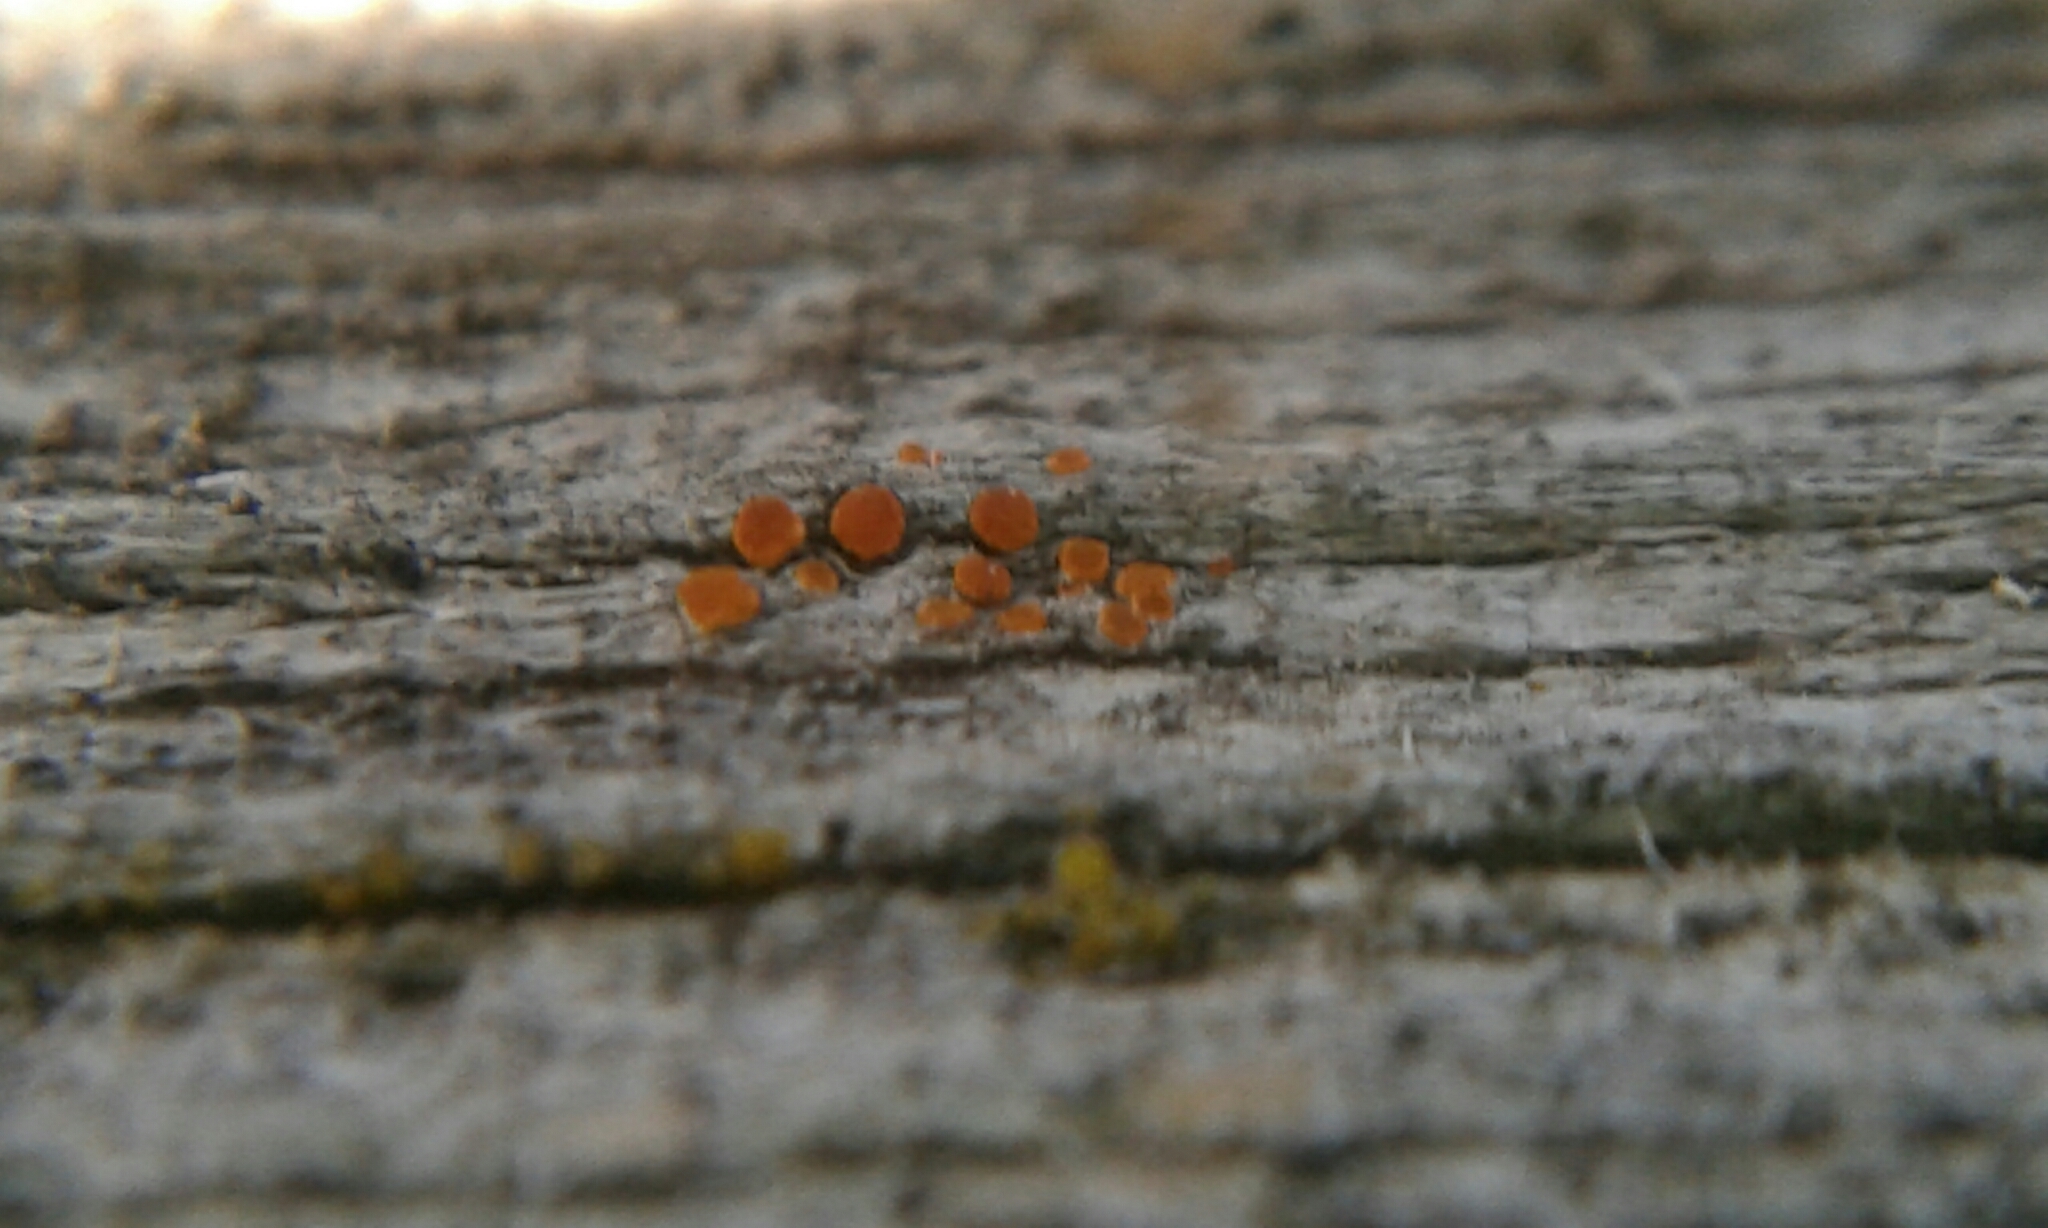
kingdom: Fungi
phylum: Ascomycota
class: Lecanoromycetes
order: Teloschistales
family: Teloschistaceae
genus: Athallia
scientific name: Athallia holocarpa
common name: Firedot lichen
